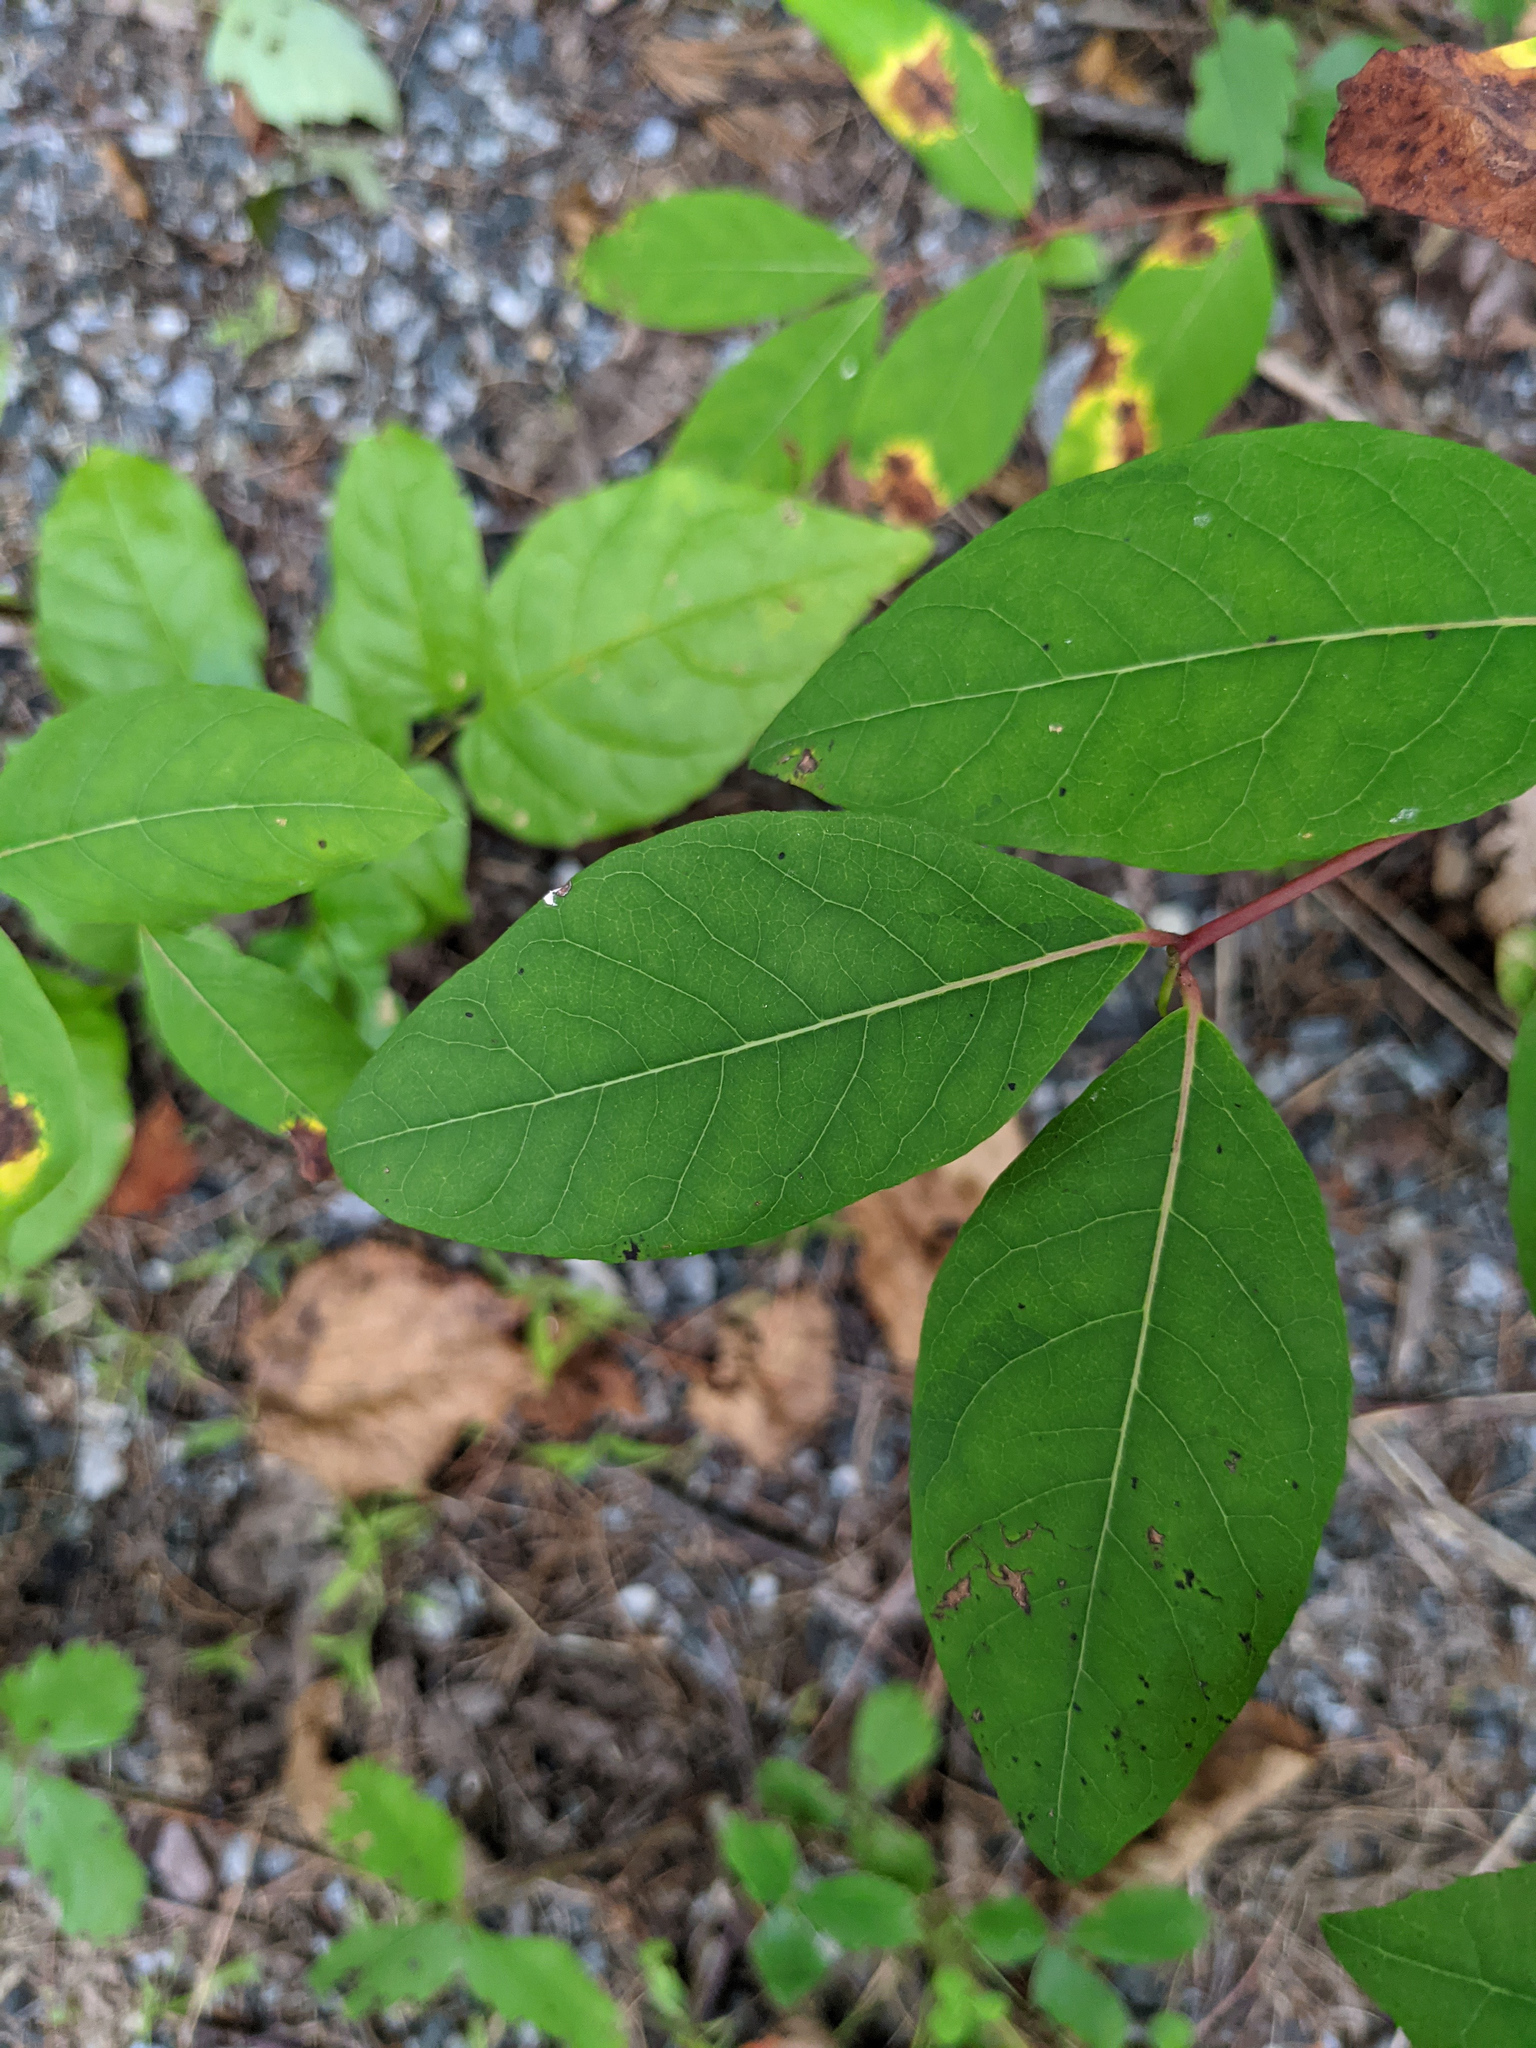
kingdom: Plantae
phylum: Tracheophyta
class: Magnoliopsida
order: Gentianales
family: Apocynaceae
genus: Apocynum
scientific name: Apocynum androsaemifolium
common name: Spreading dogbane
